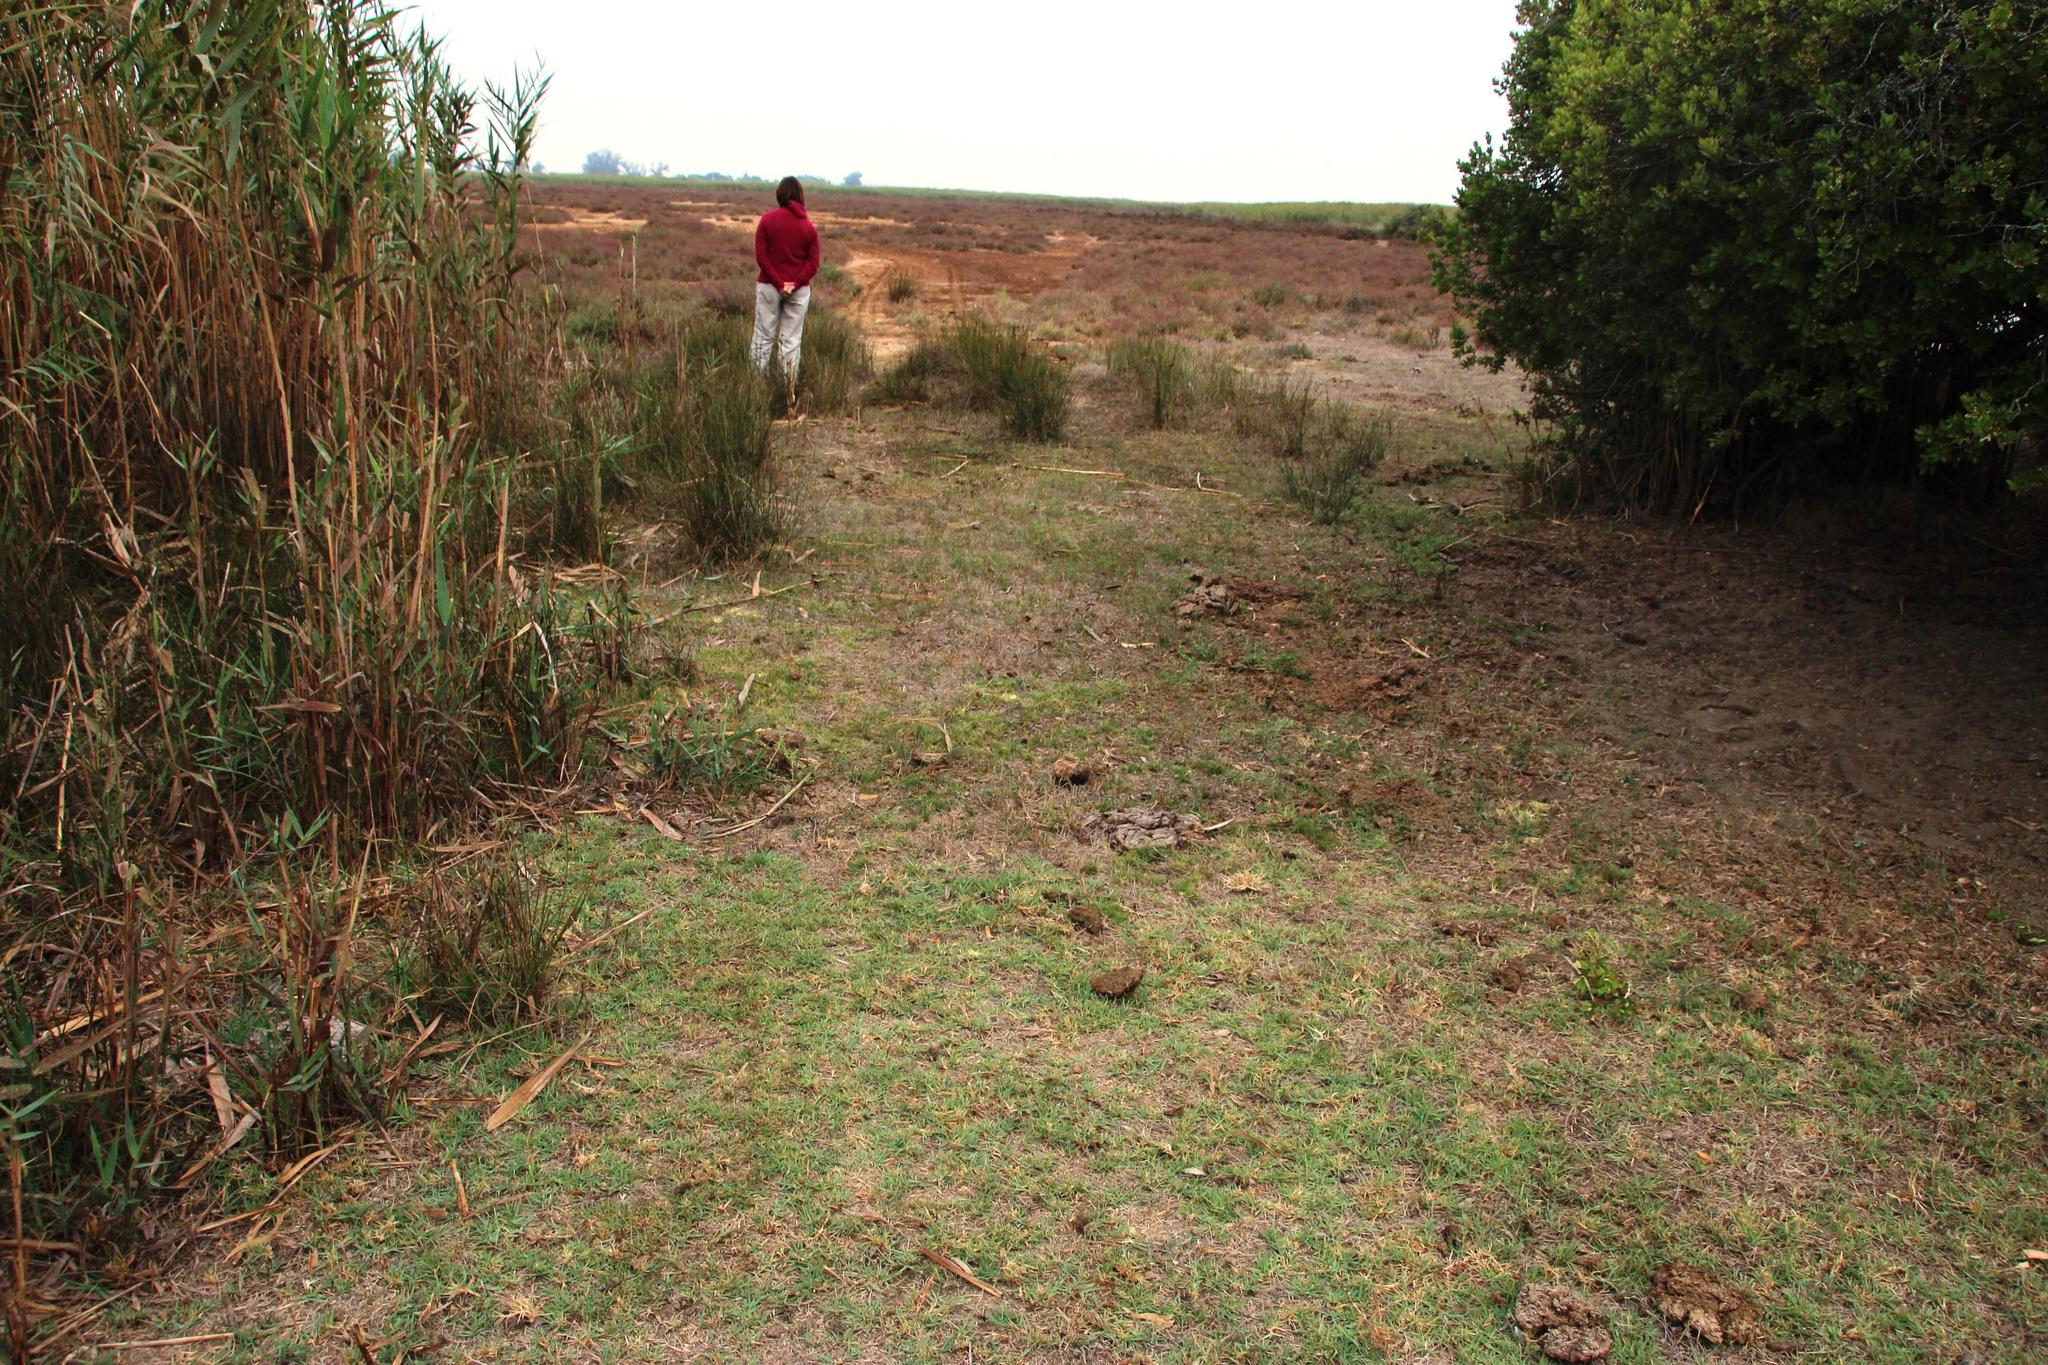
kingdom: Plantae
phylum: Tracheophyta
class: Liliopsida
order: Poales
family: Poaceae
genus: Cenchrus
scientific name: Cenchrus clandestinus
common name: Kikuyugrass
